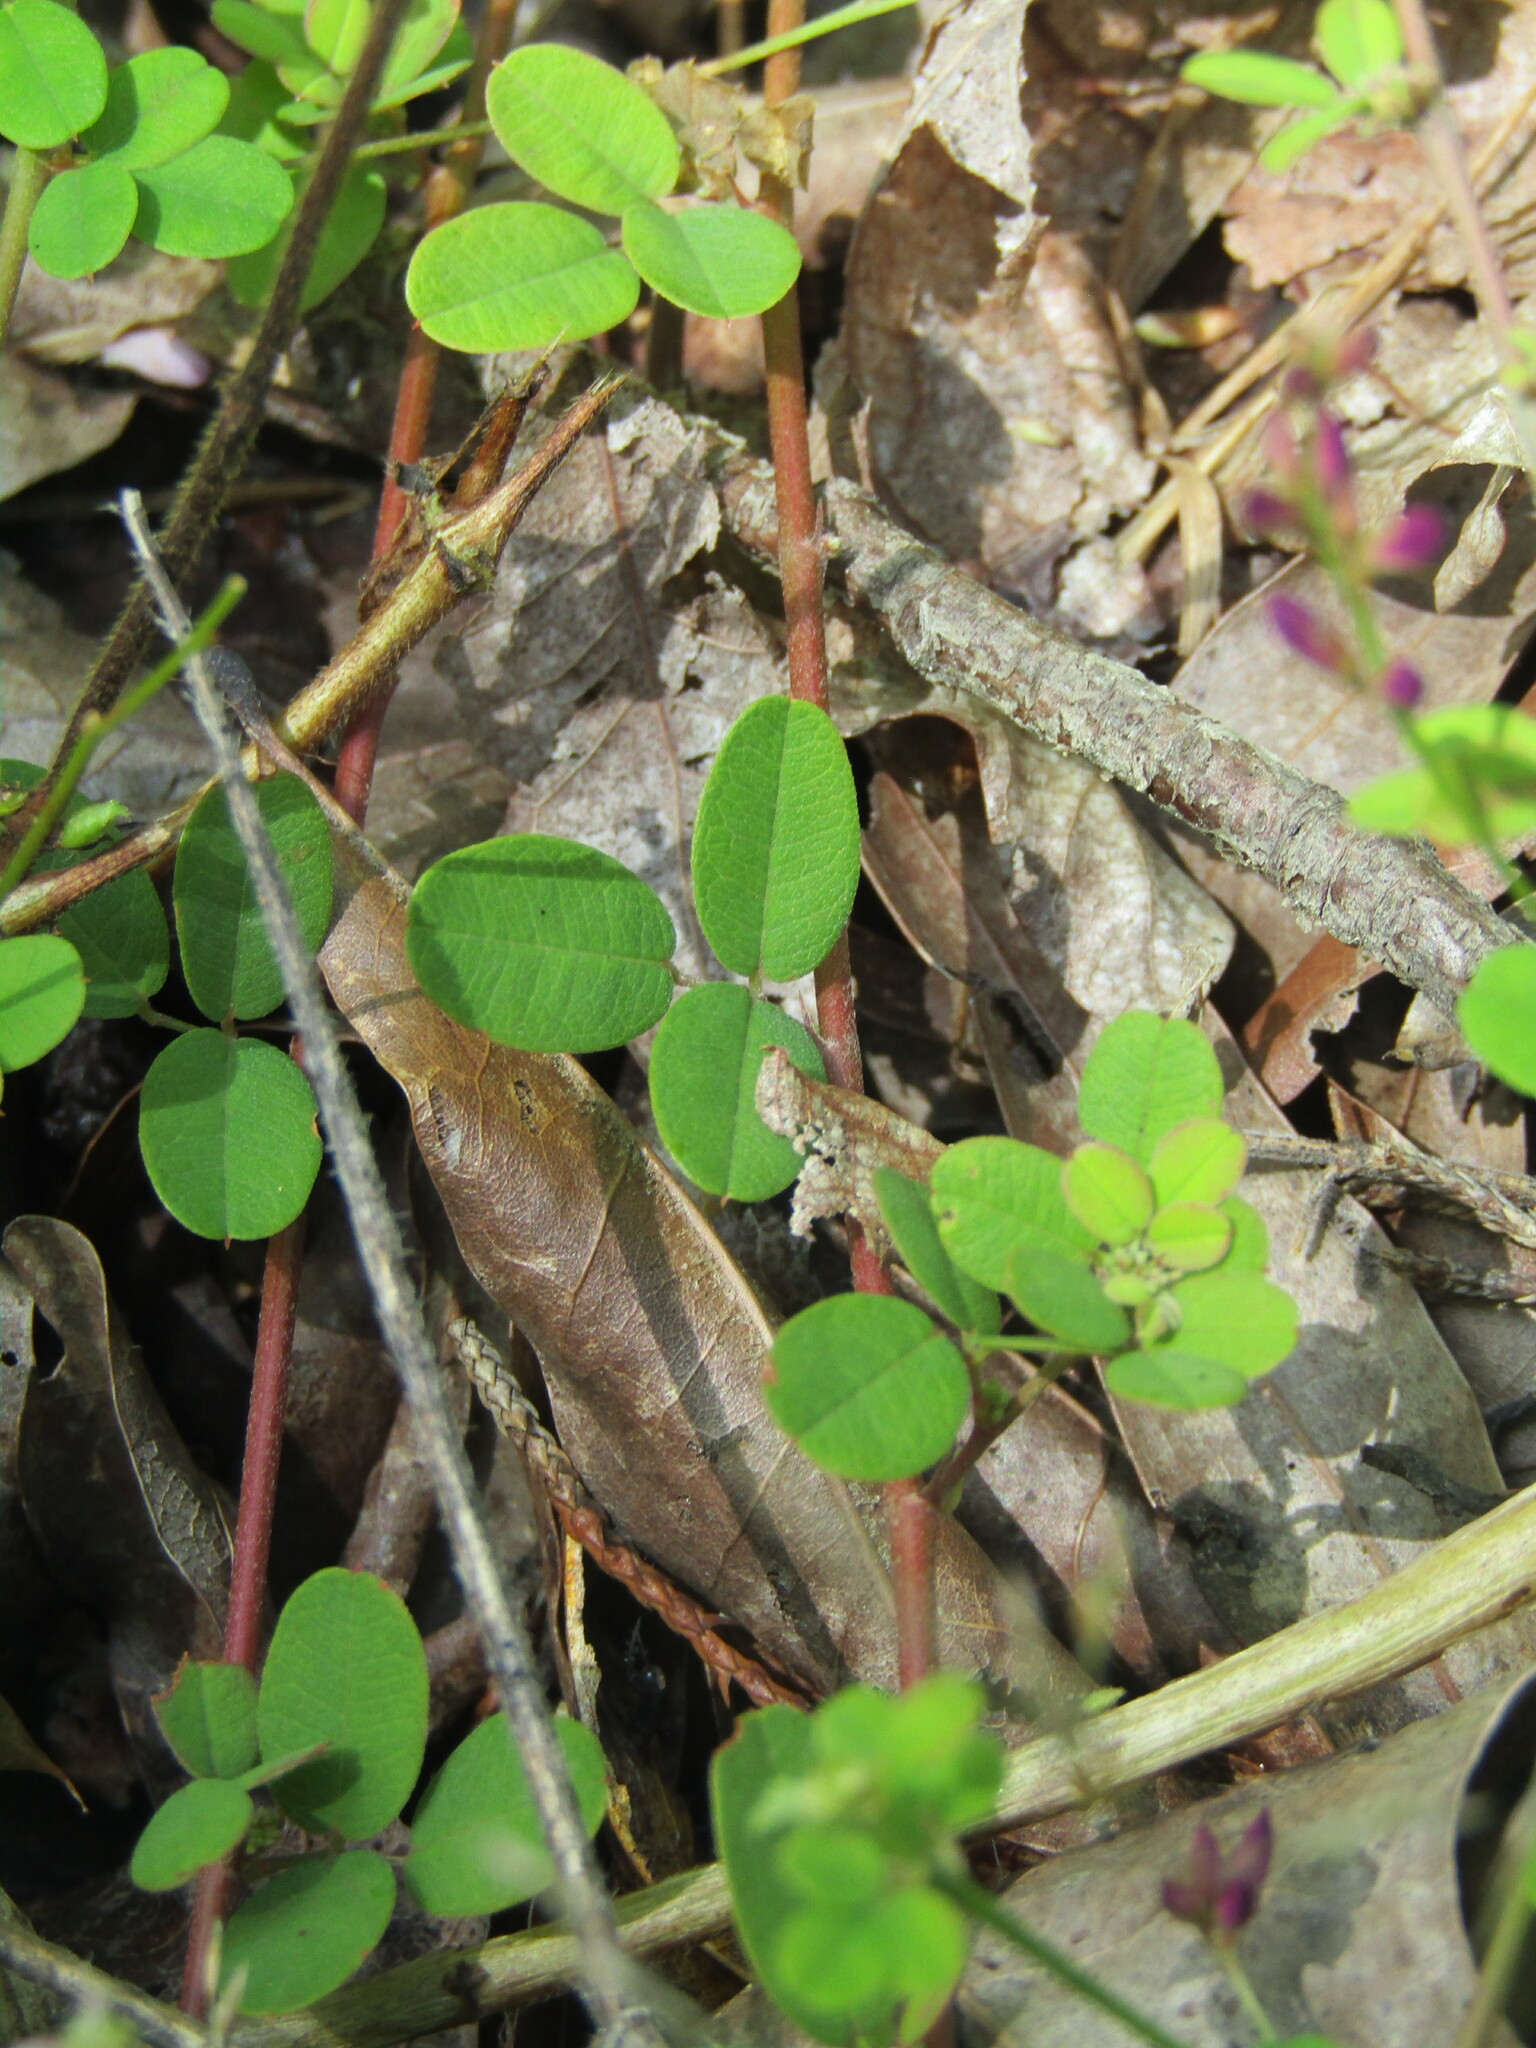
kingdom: Plantae
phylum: Tracheophyta
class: Magnoliopsida
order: Fabales
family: Fabaceae
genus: Lespedeza
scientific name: Lespedeza repens
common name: Creeping bush-clover
